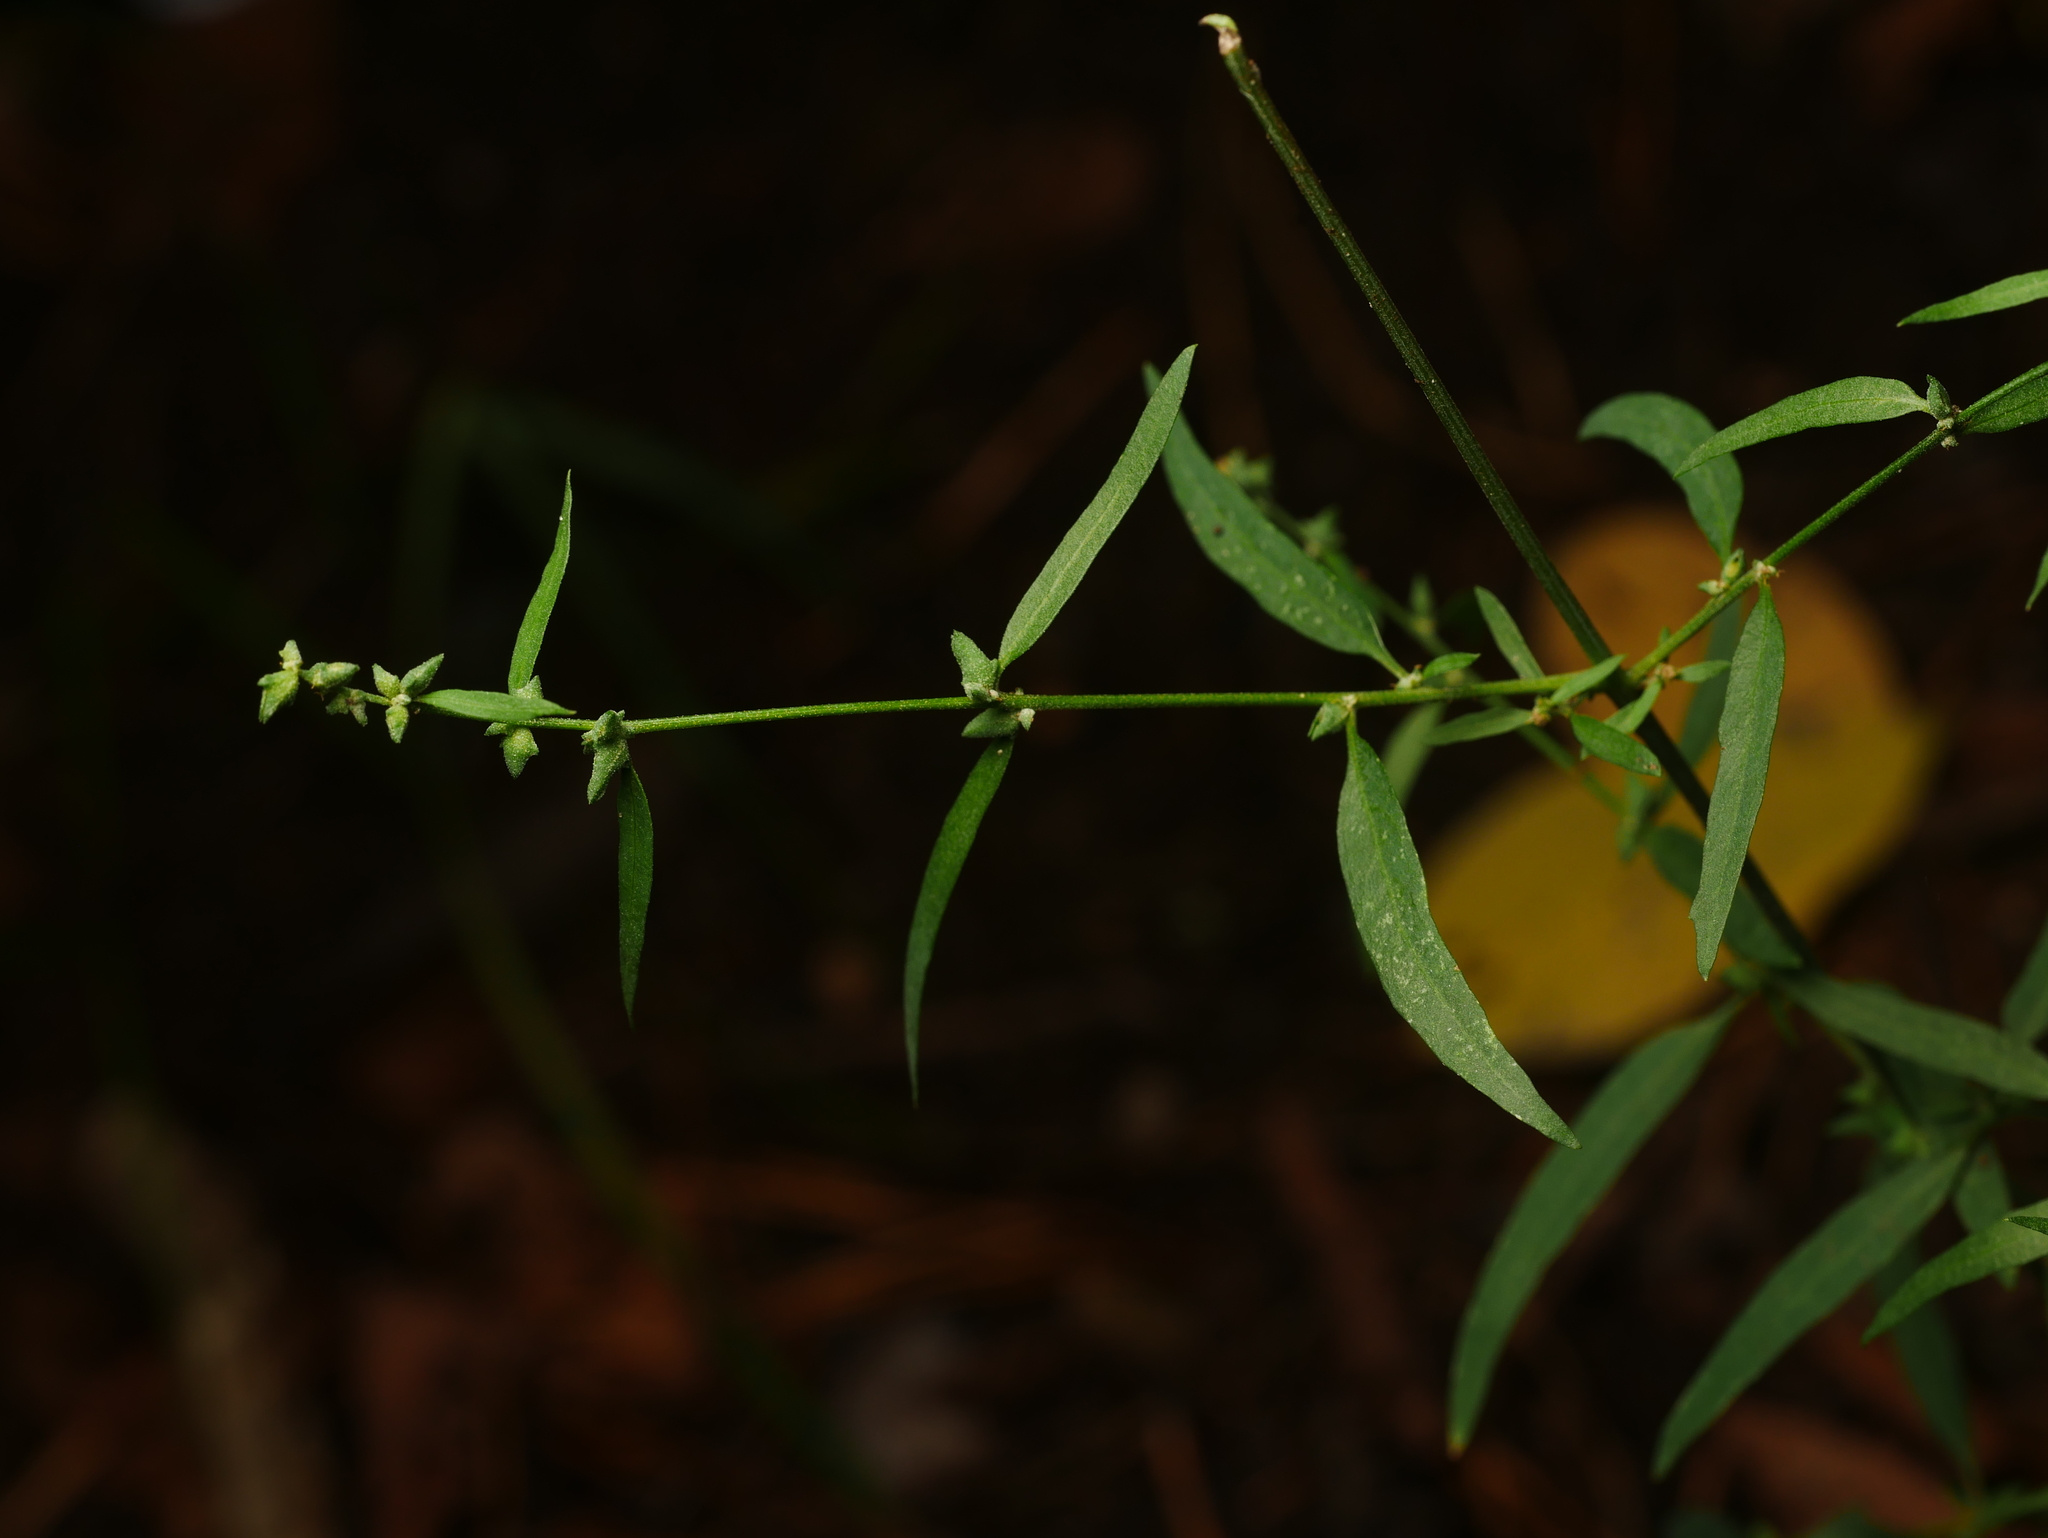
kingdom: Plantae
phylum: Tracheophyta
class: Magnoliopsida
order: Caryophyllales
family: Amaranthaceae
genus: Atriplex
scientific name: Atriplex patula
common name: Common orache
